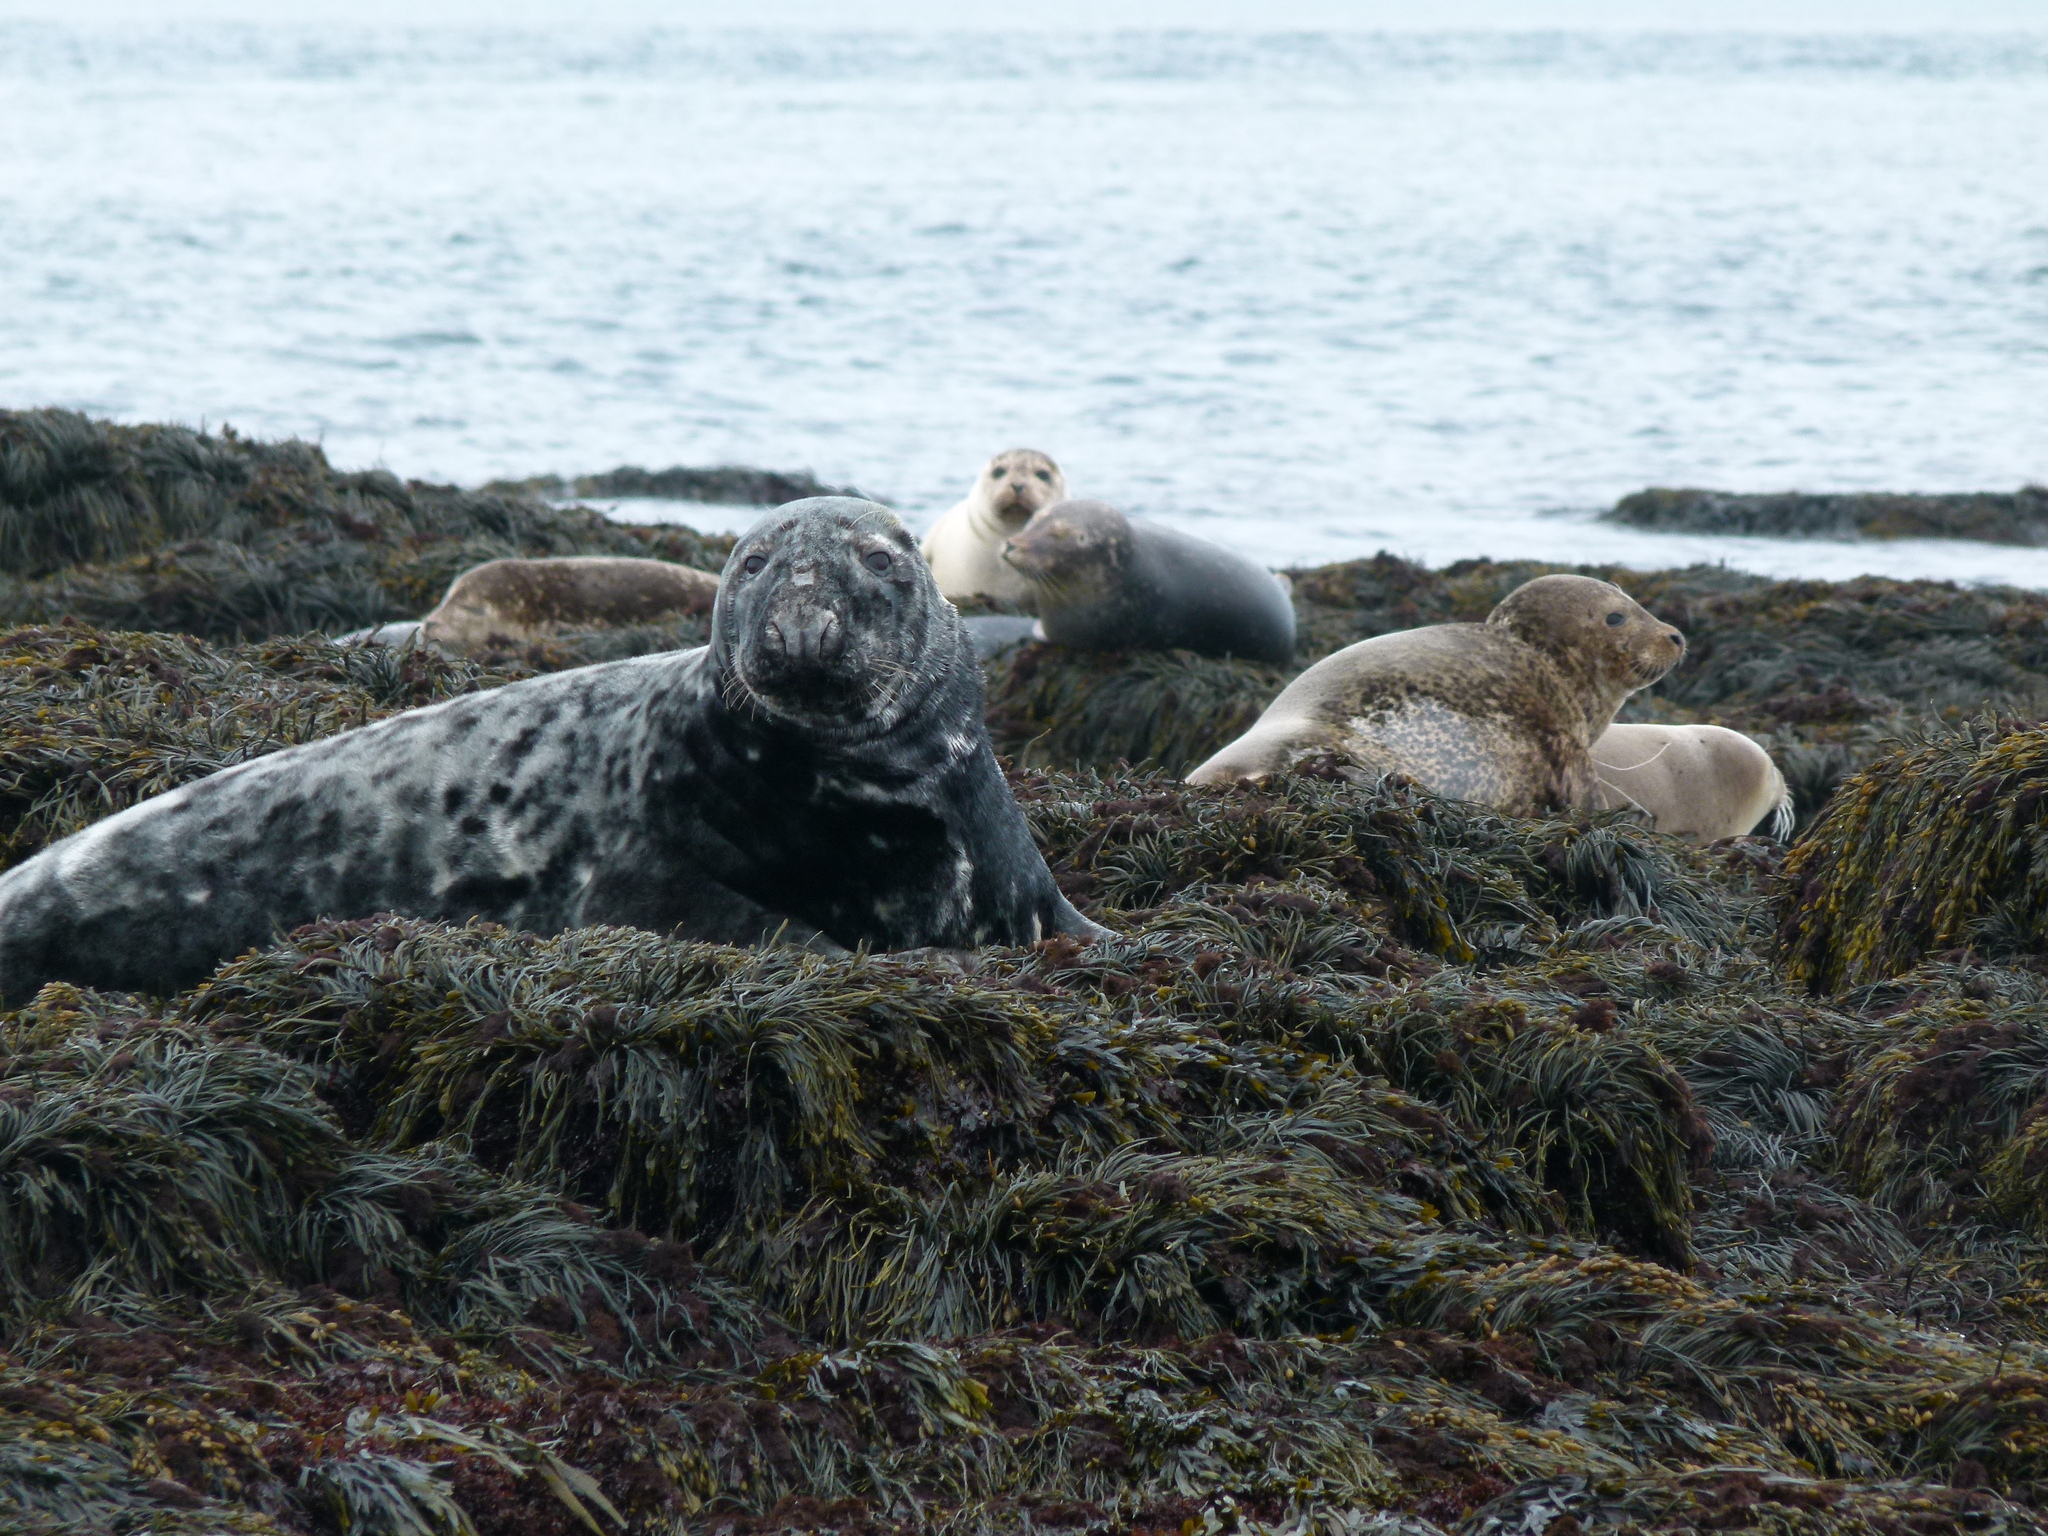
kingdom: Animalia
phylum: Chordata
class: Mammalia
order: Carnivora
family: Phocidae
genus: Phoca
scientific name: Phoca vitulina
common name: Harbor seal
